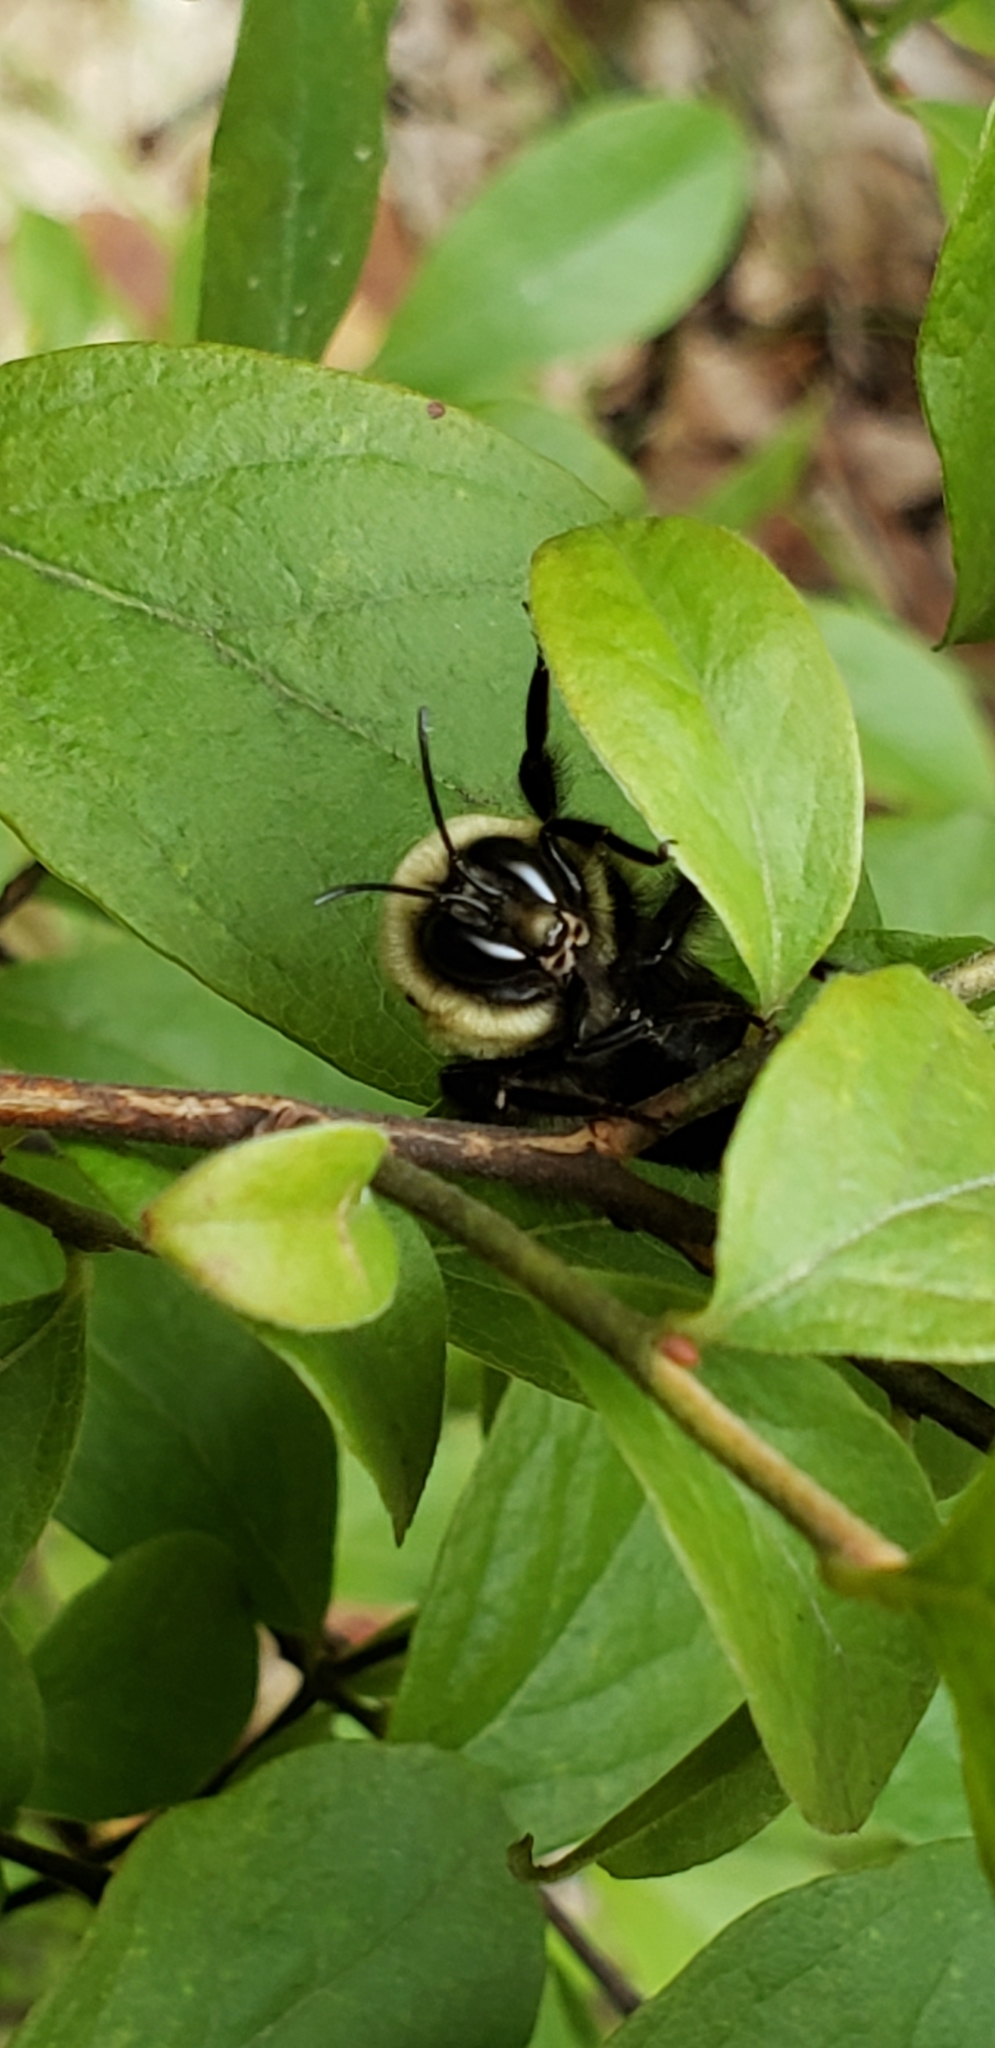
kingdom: Animalia
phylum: Arthropoda
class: Insecta
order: Hymenoptera
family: Apidae
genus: Bombus
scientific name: Bombus griseocollis
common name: Brown-belted bumble bee
